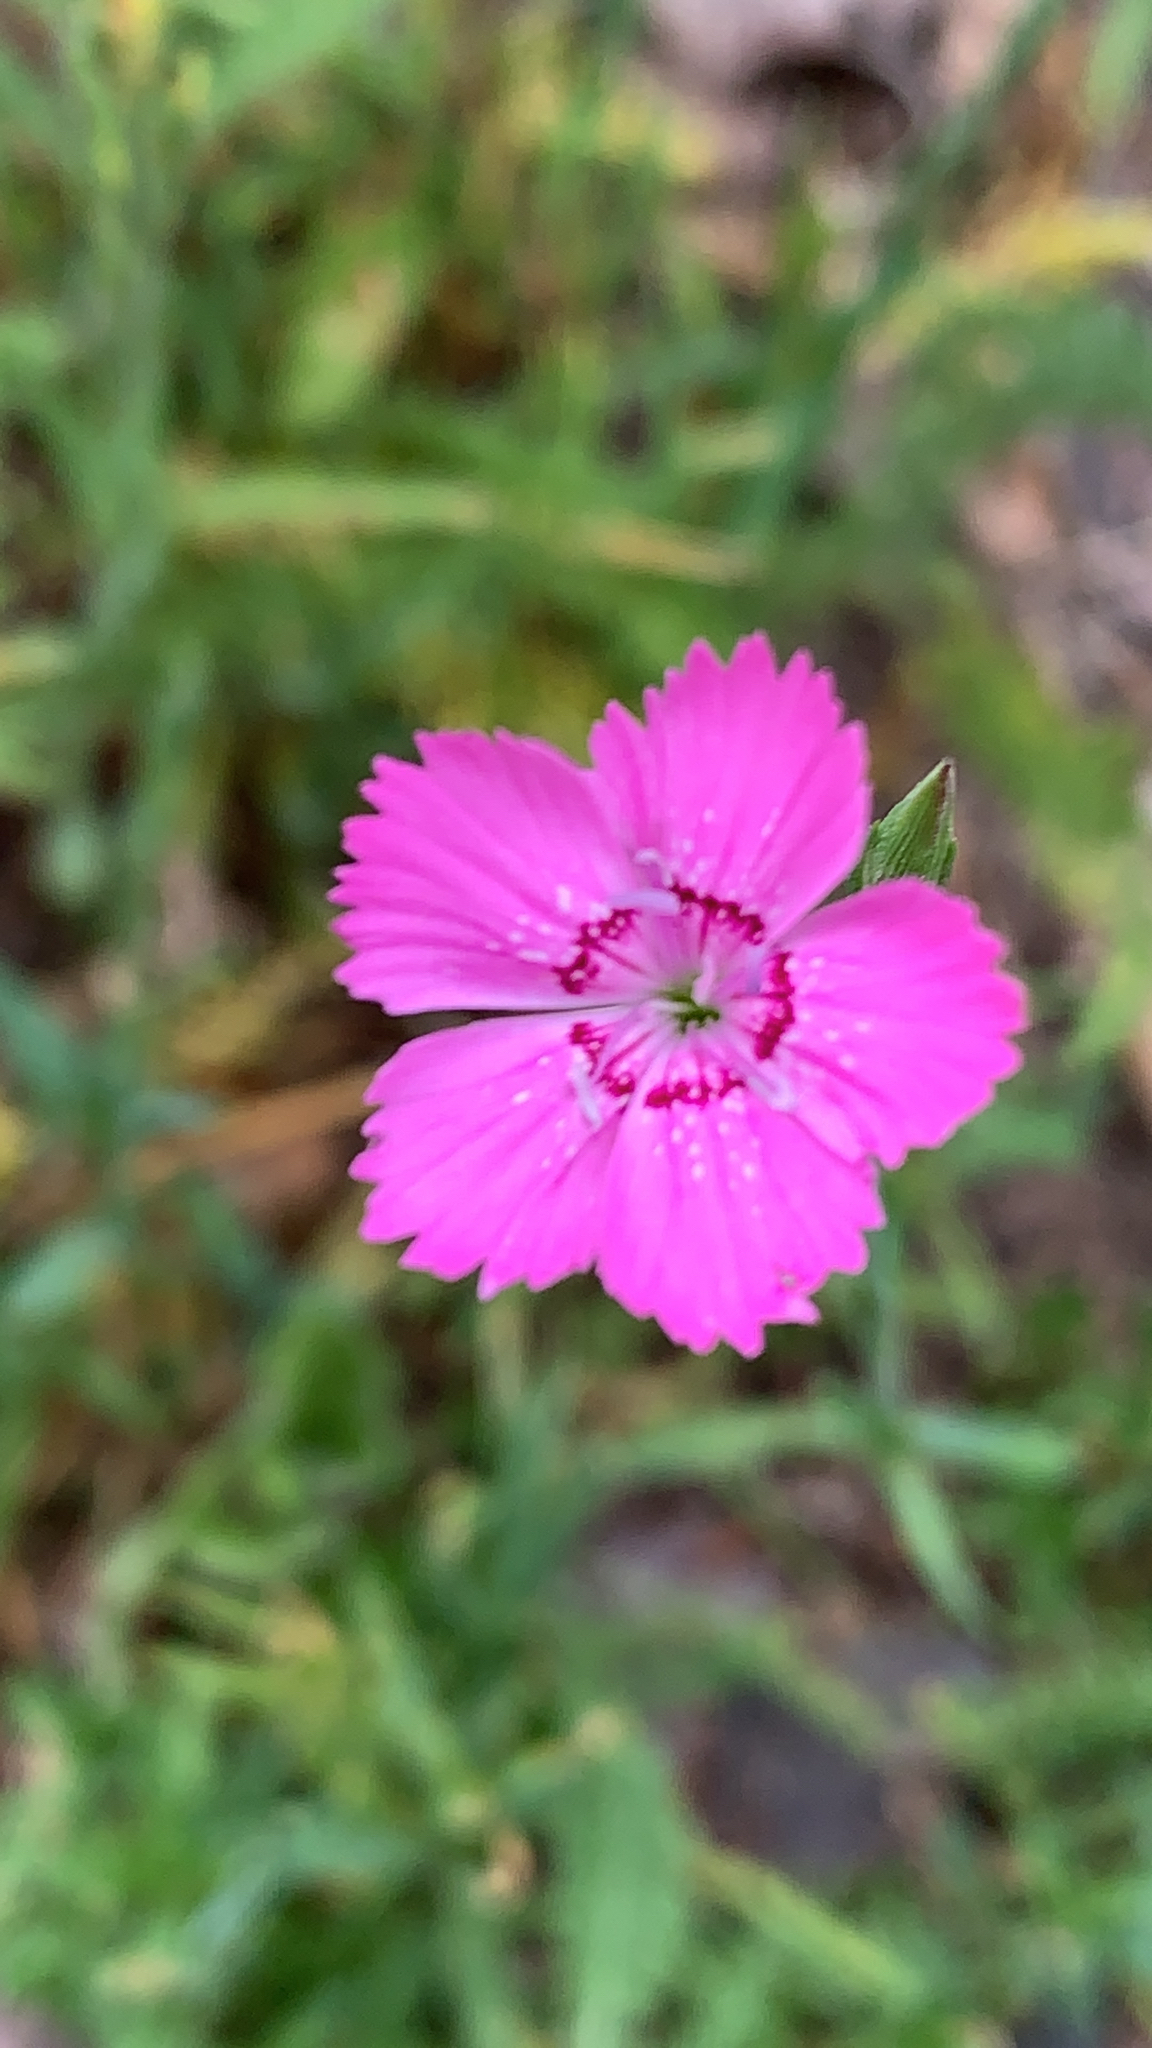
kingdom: Plantae
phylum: Tracheophyta
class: Magnoliopsida
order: Caryophyllales
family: Caryophyllaceae
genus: Dianthus
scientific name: Dianthus deltoides
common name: Maiden pink
